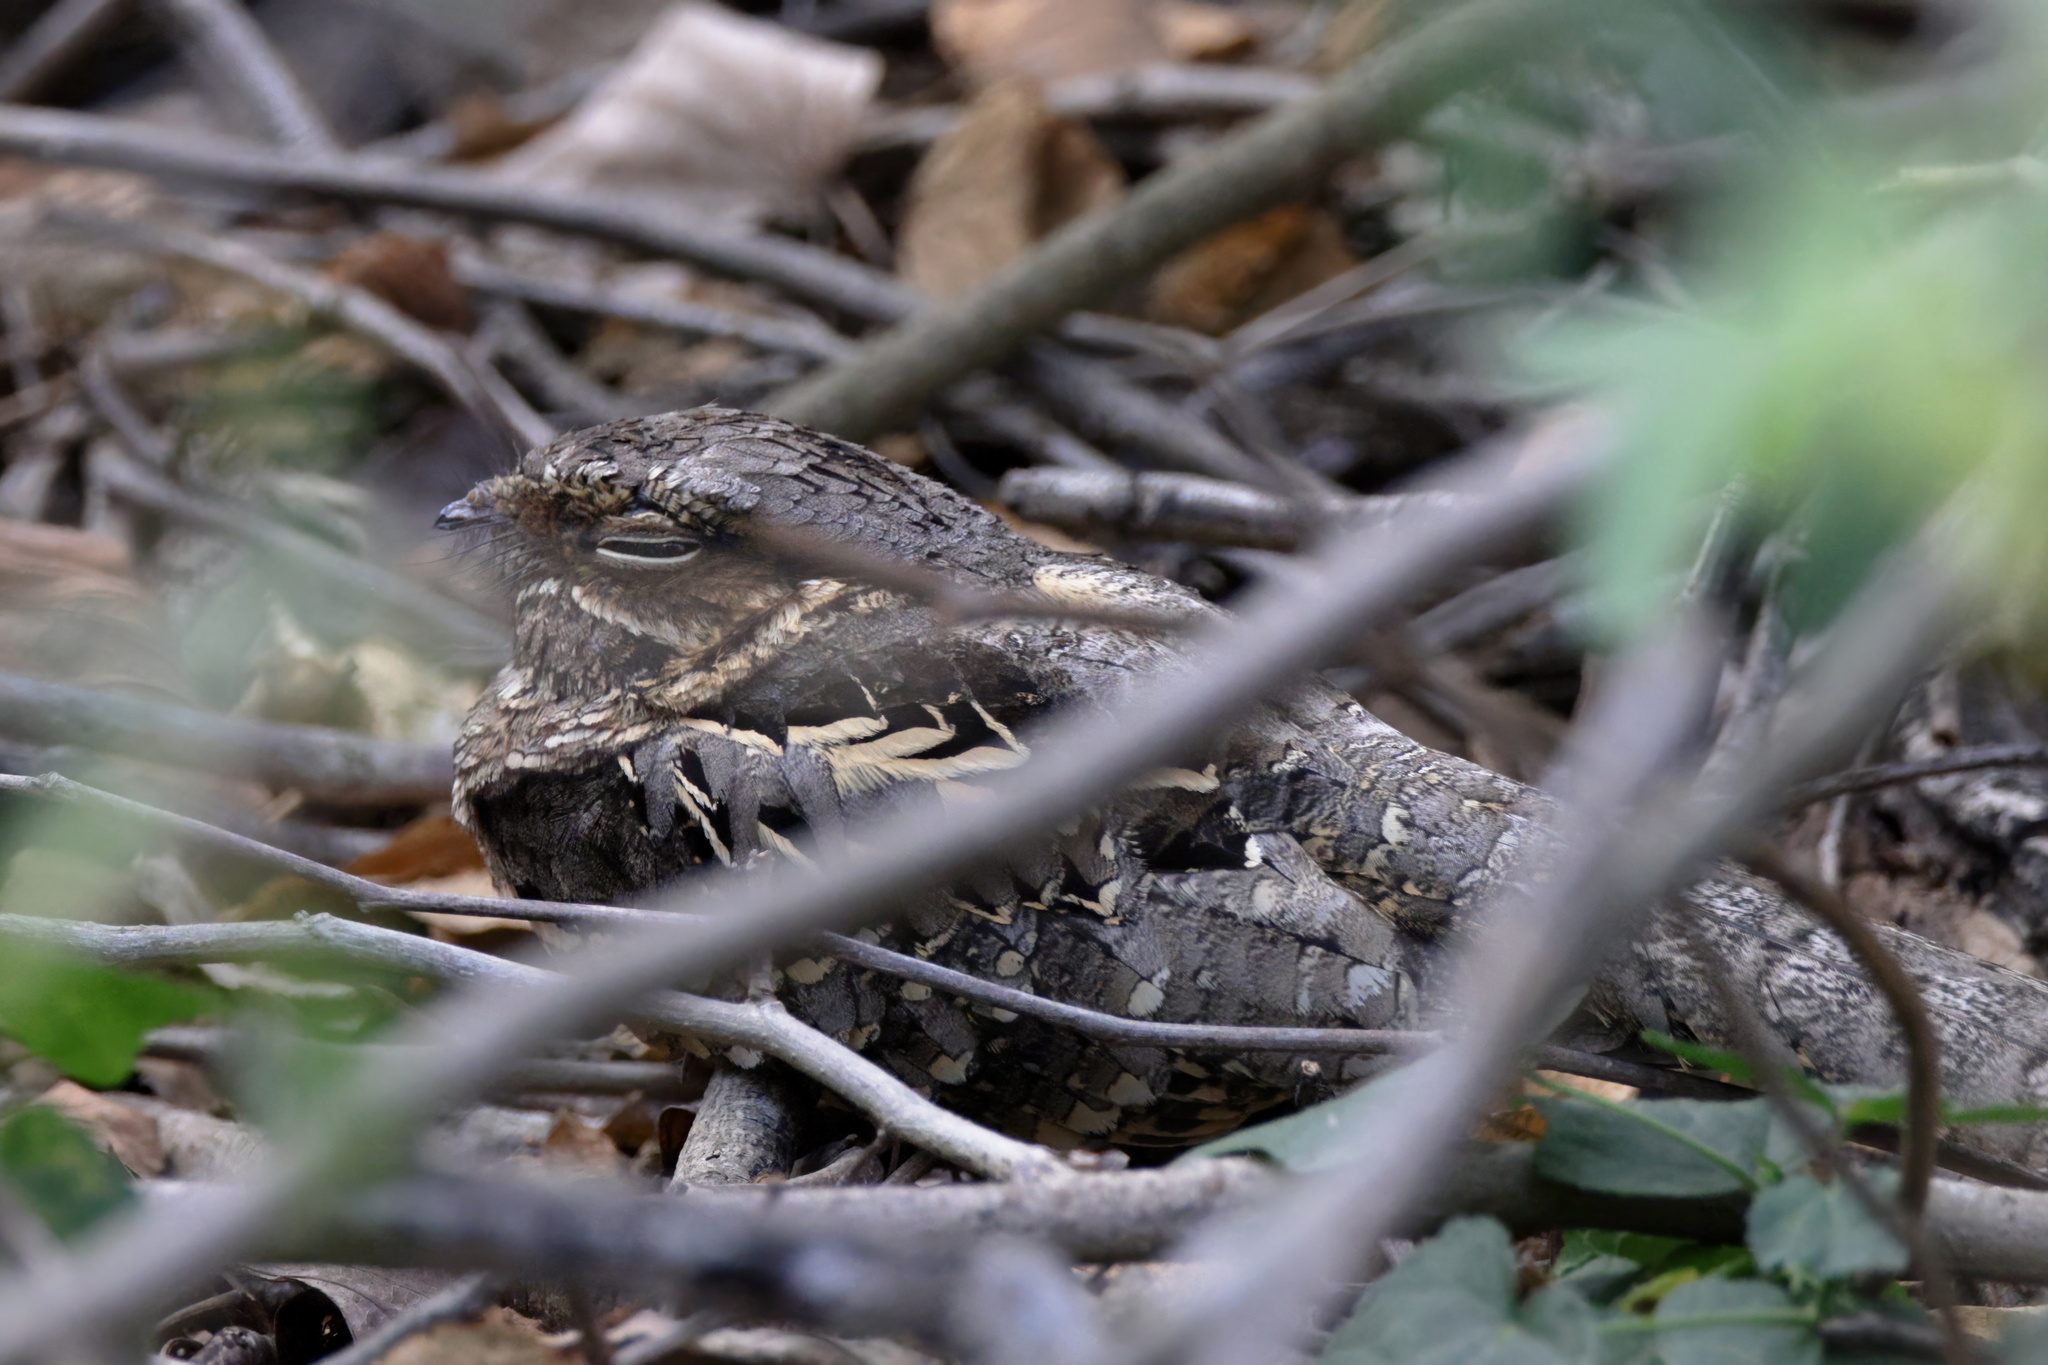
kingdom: Animalia
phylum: Chordata
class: Aves
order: Caprimulgiformes
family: Caprimulgidae
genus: Nyctidromus
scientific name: Nyctidromus albicollis
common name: Pauraque
